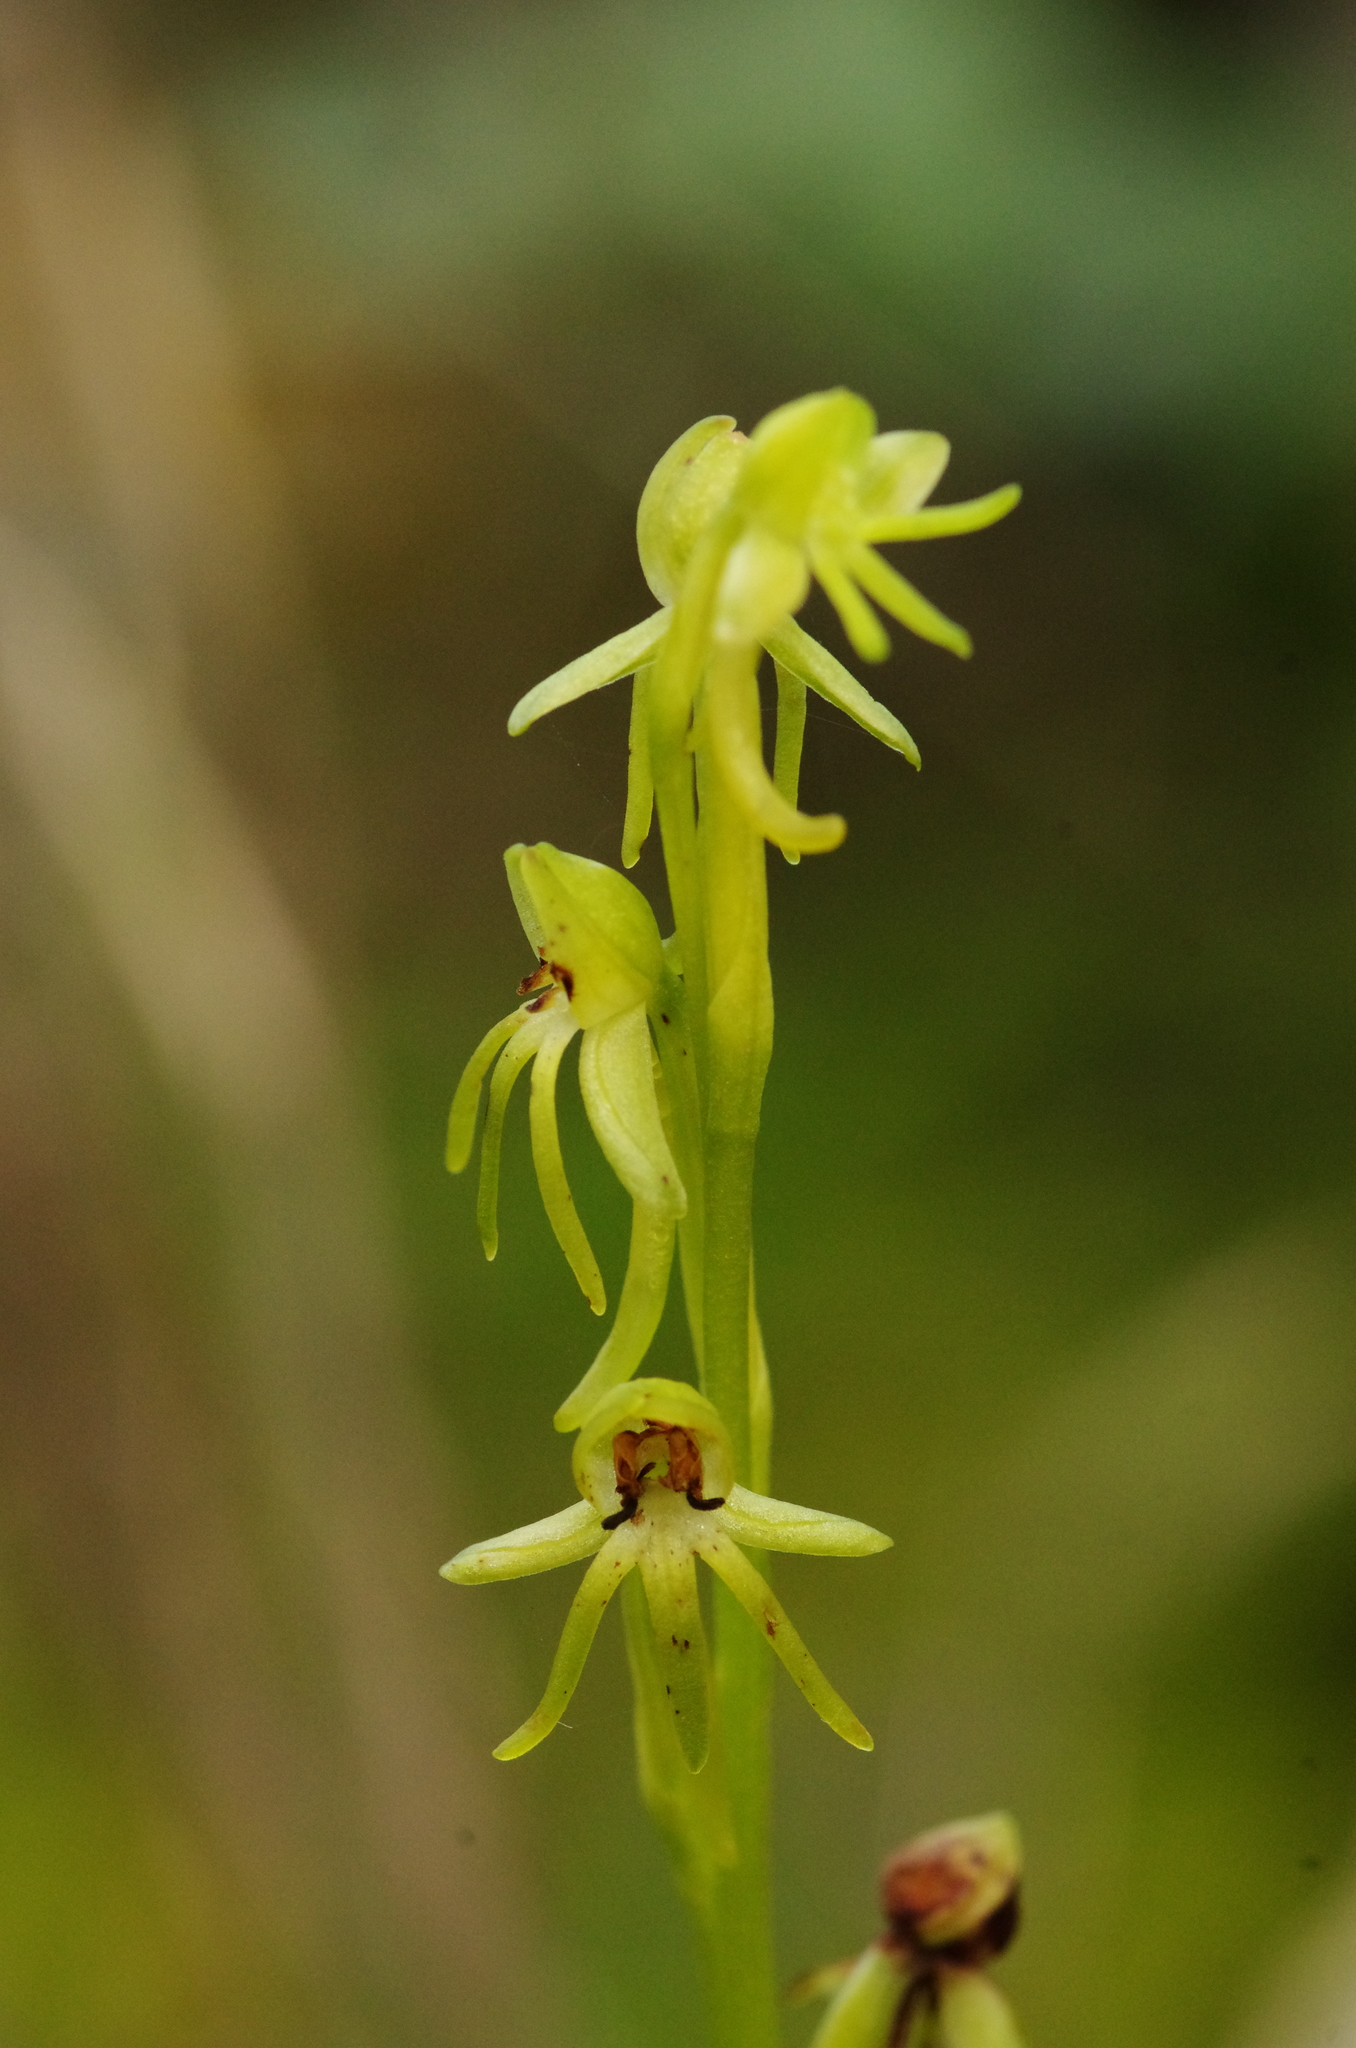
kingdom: Plantae
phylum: Tracheophyta
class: Liliopsida
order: Asparagales
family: Orchidaceae
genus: Habenaria
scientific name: Habenaria tridactylites
